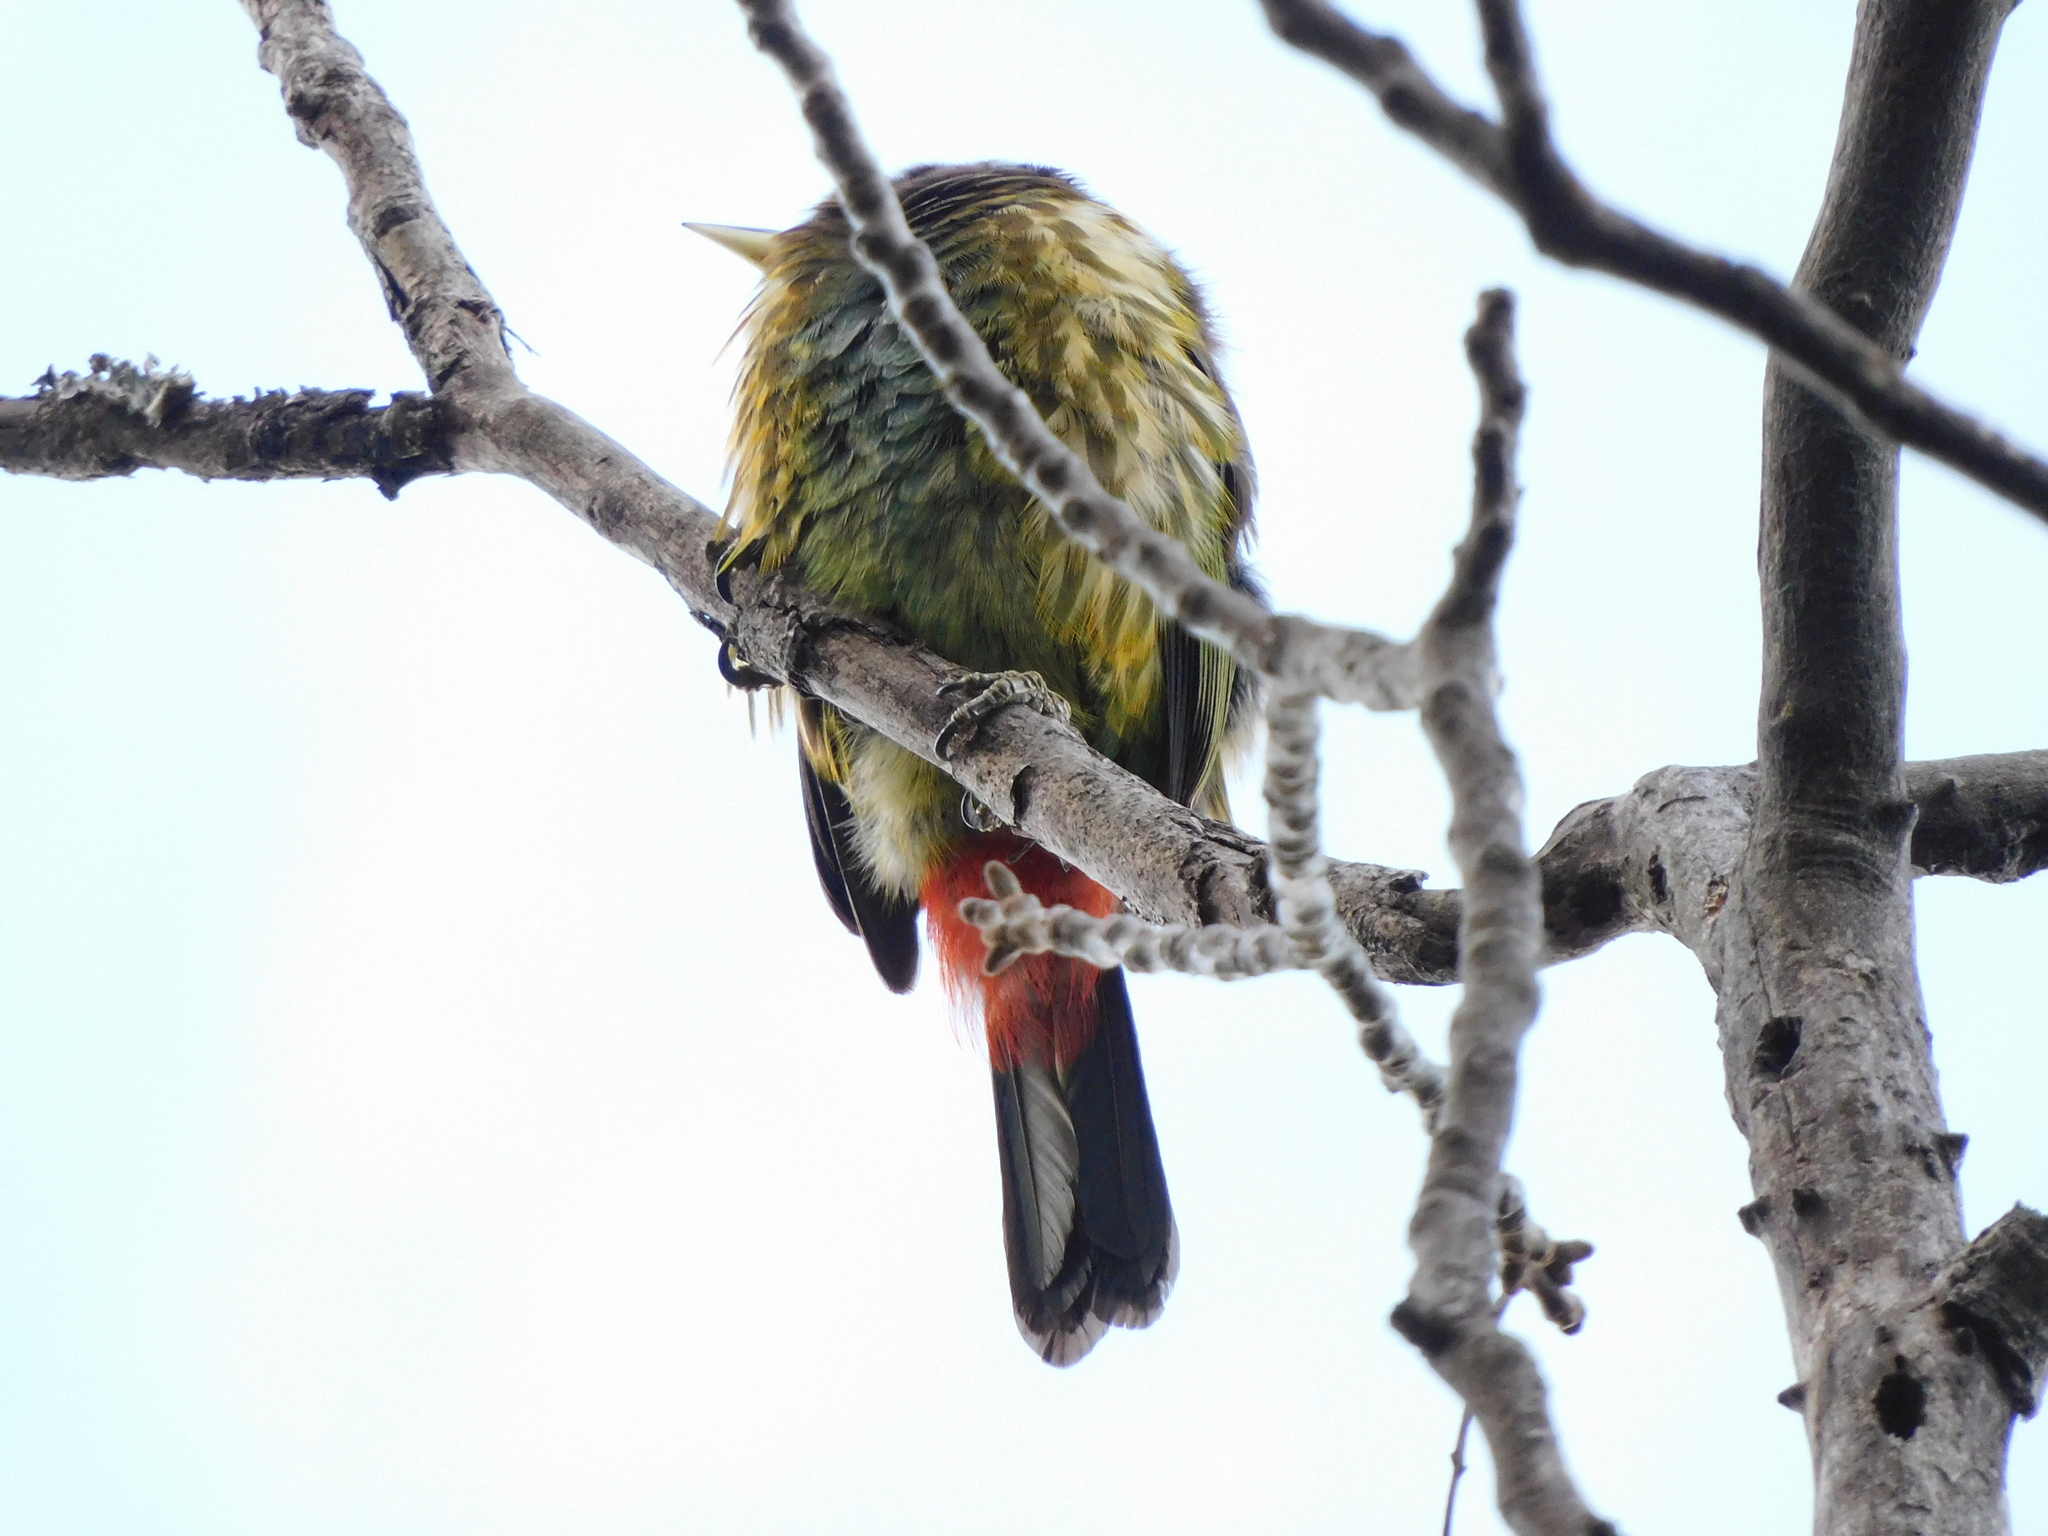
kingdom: Animalia
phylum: Chordata
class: Aves
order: Piciformes
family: Megalaimidae
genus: Psilopogon
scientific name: Psilopogon virens
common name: Great barbet
